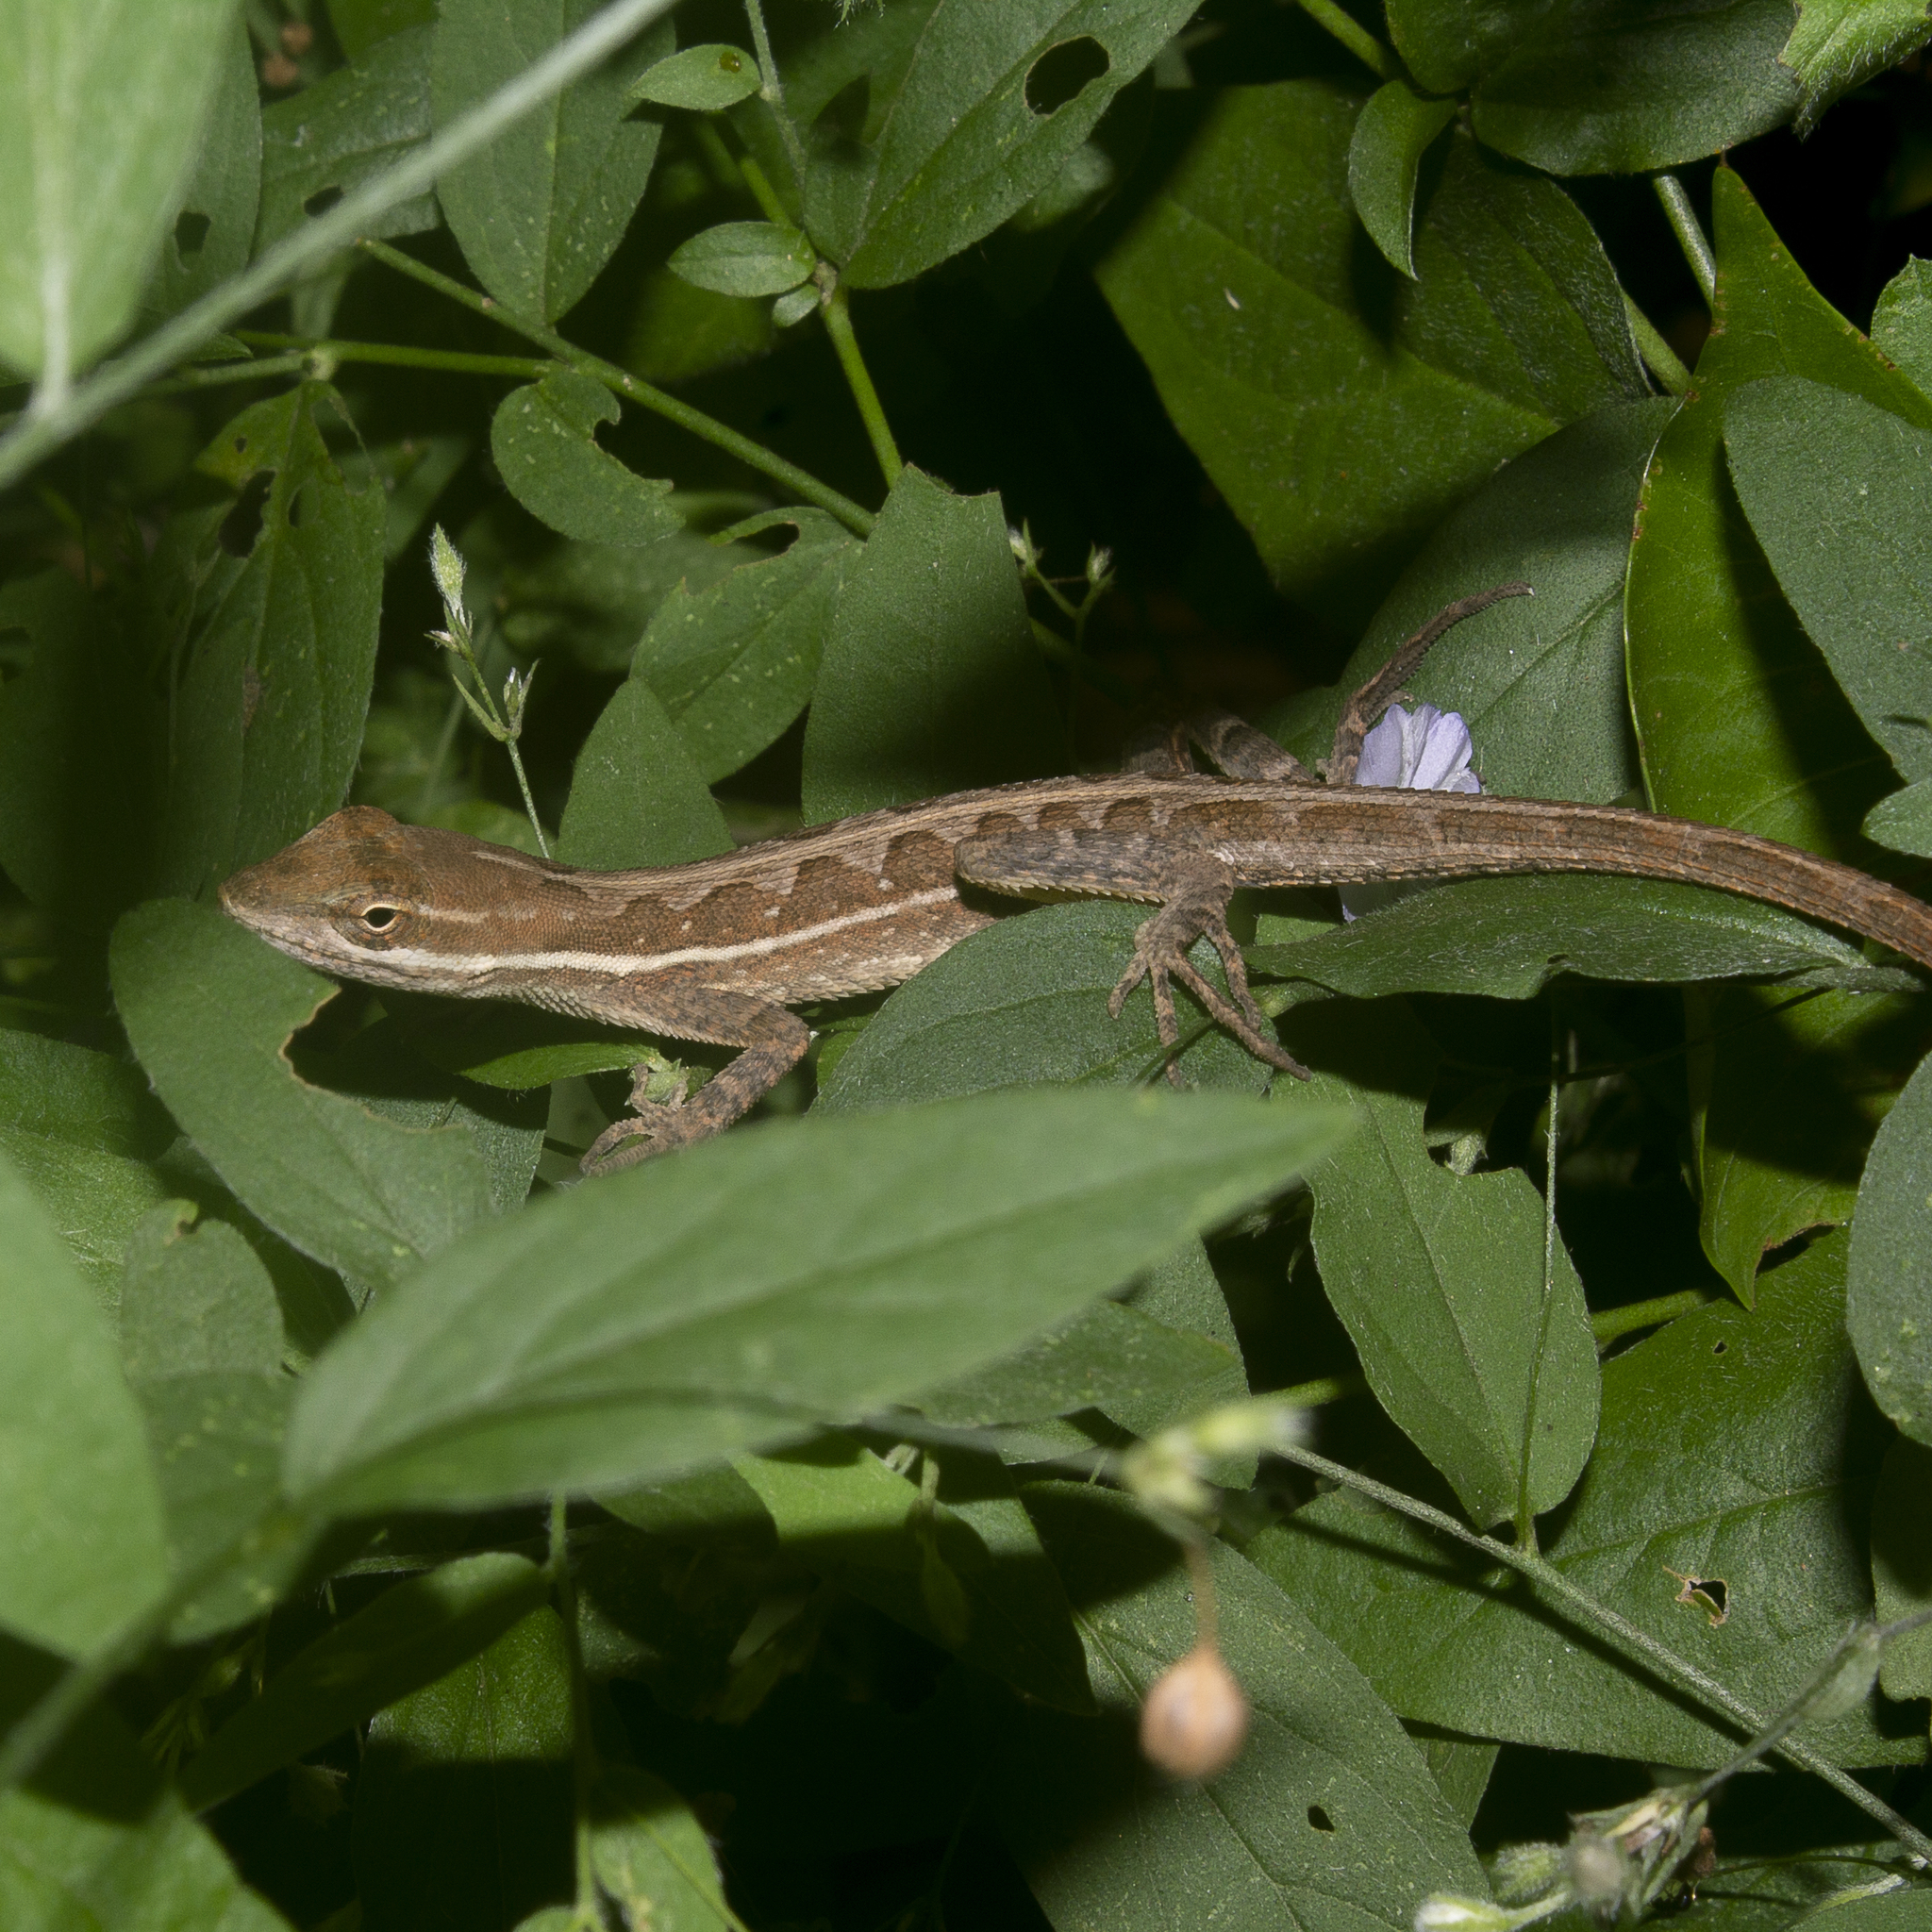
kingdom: Animalia
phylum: Chordata
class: Squamata
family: Dactyloidae
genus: Anolis
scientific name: Anolis auratus
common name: Grass anole
